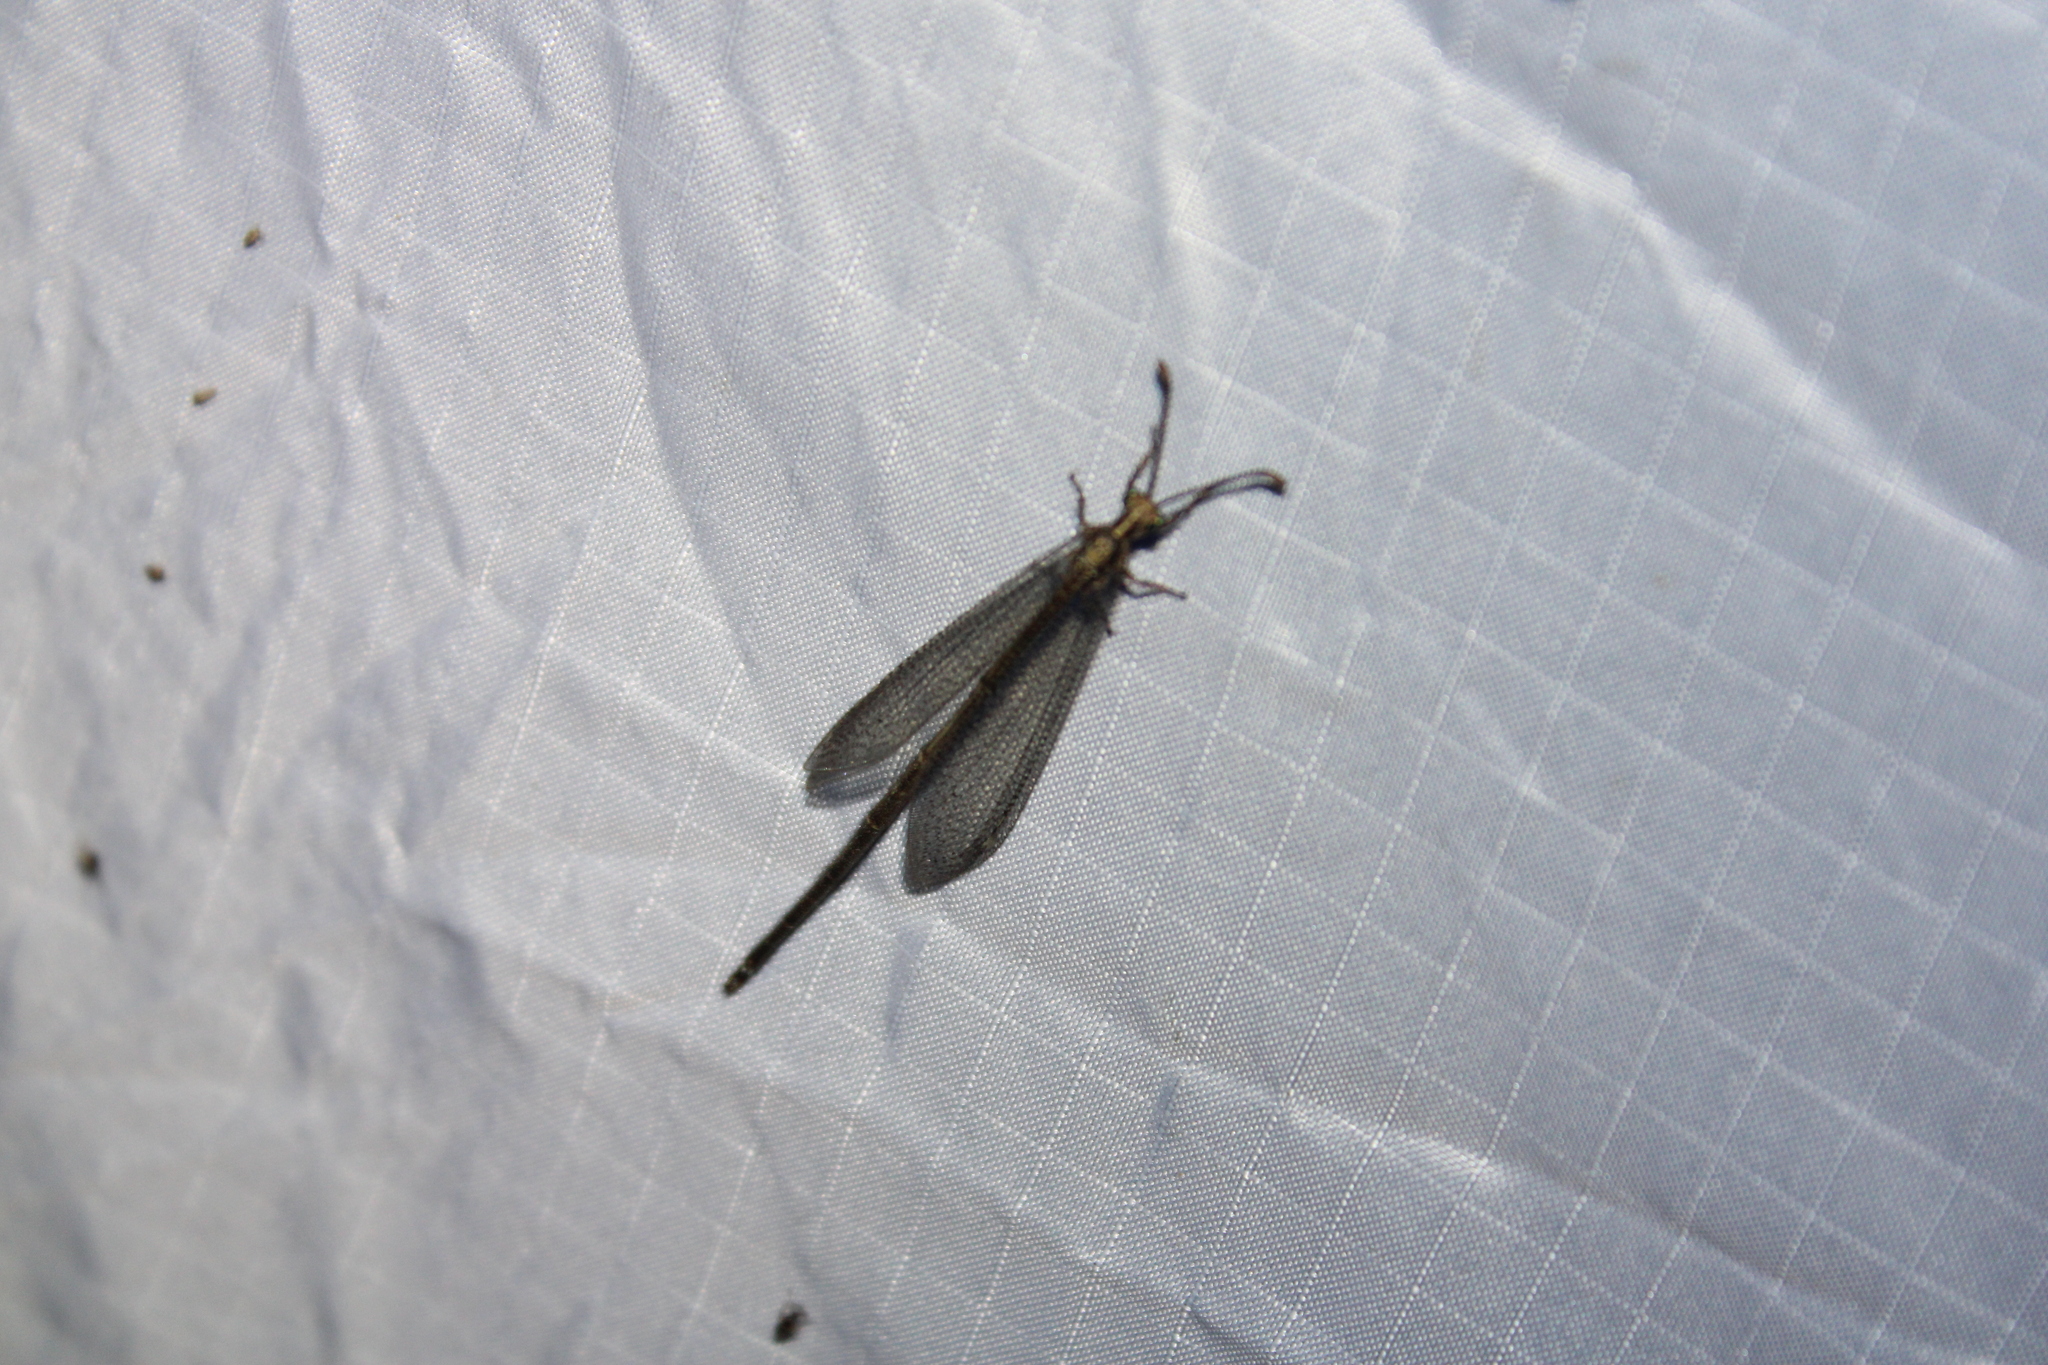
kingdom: Animalia
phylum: Arthropoda
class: Insecta
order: Neuroptera
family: Myrmeleontidae
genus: Brachynemurus
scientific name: Brachynemurus abdominalis
